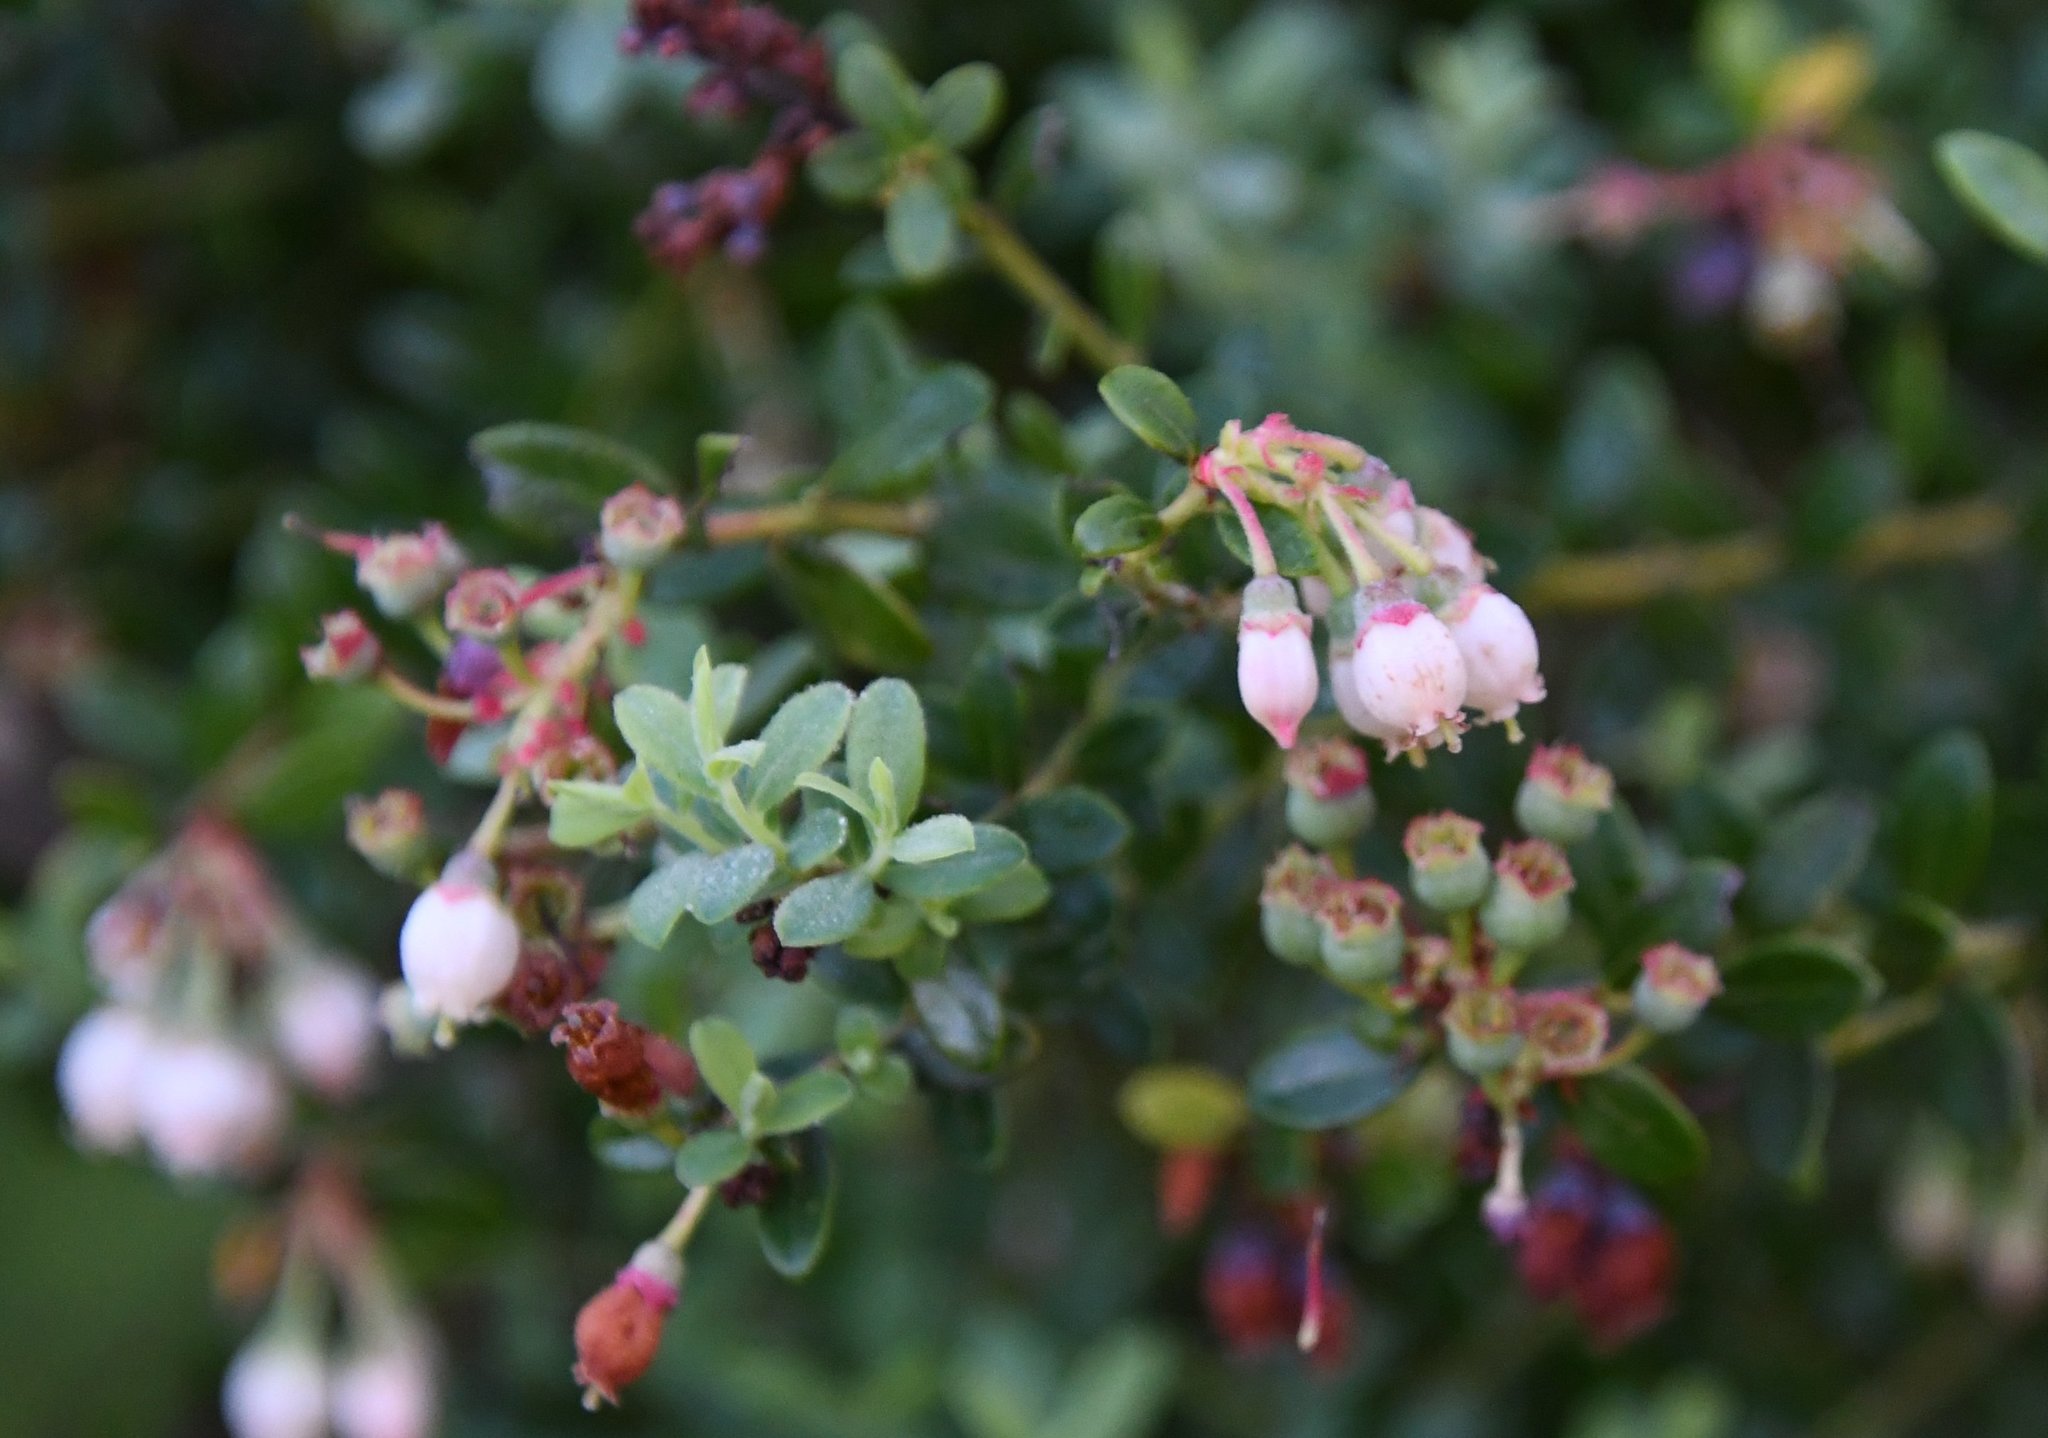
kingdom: Plantae
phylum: Tracheophyta
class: Magnoliopsida
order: Ericales
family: Ericaceae
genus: Vaccinium
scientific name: Vaccinium darrowii
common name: Darrow's blueberry
